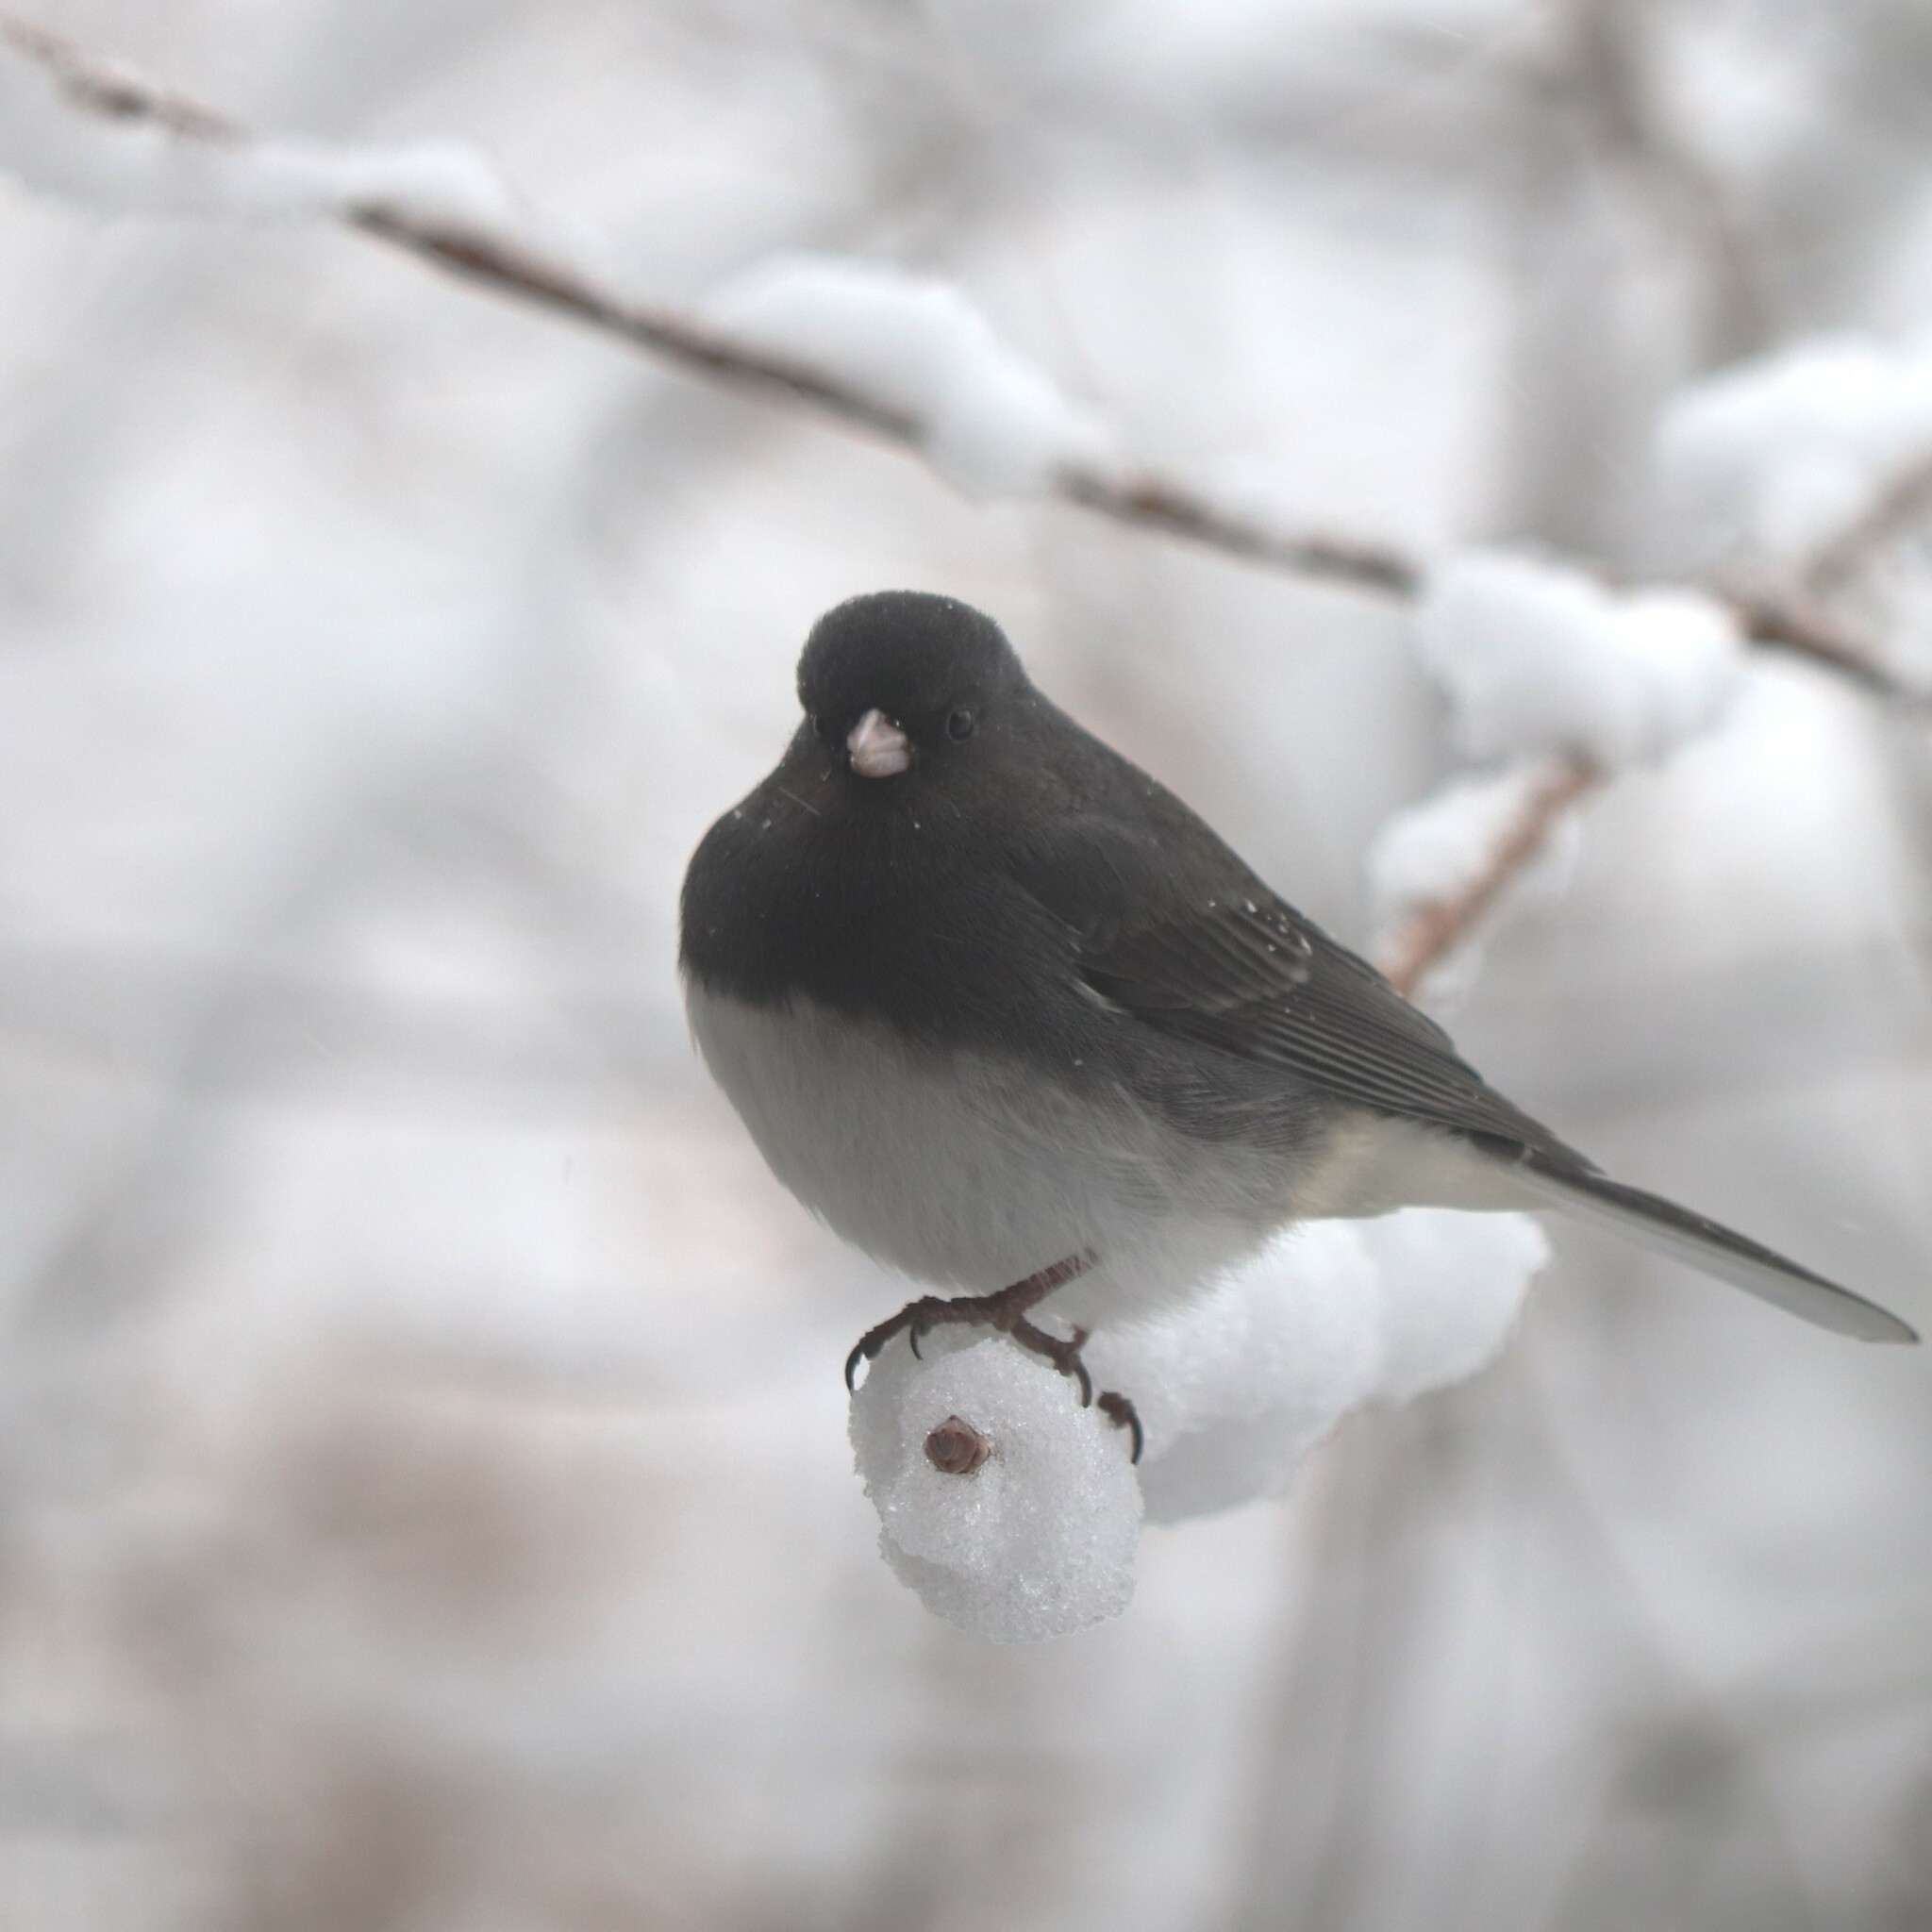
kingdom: Animalia
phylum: Chordata
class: Aves
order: Passeriformes
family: Passerellidae
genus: Junco
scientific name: Junco hyemalis
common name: Dark-eyed junco
